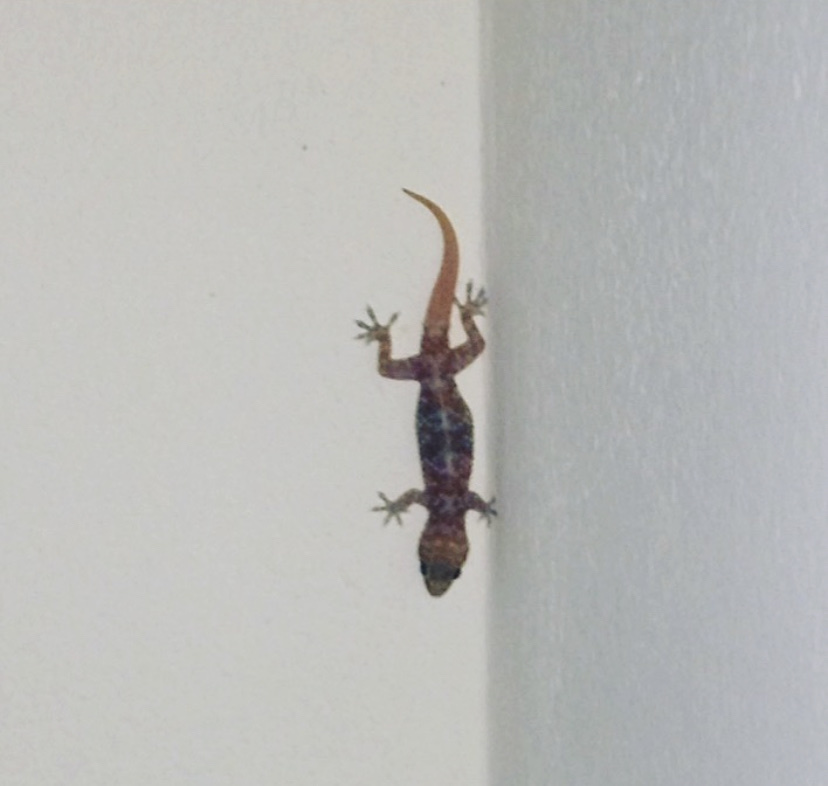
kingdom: Animalia
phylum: Chordata
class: Squamata
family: Gekkonidae
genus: Hemidactylus
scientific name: Hemidactylus turcicus
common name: Turkish gecko
